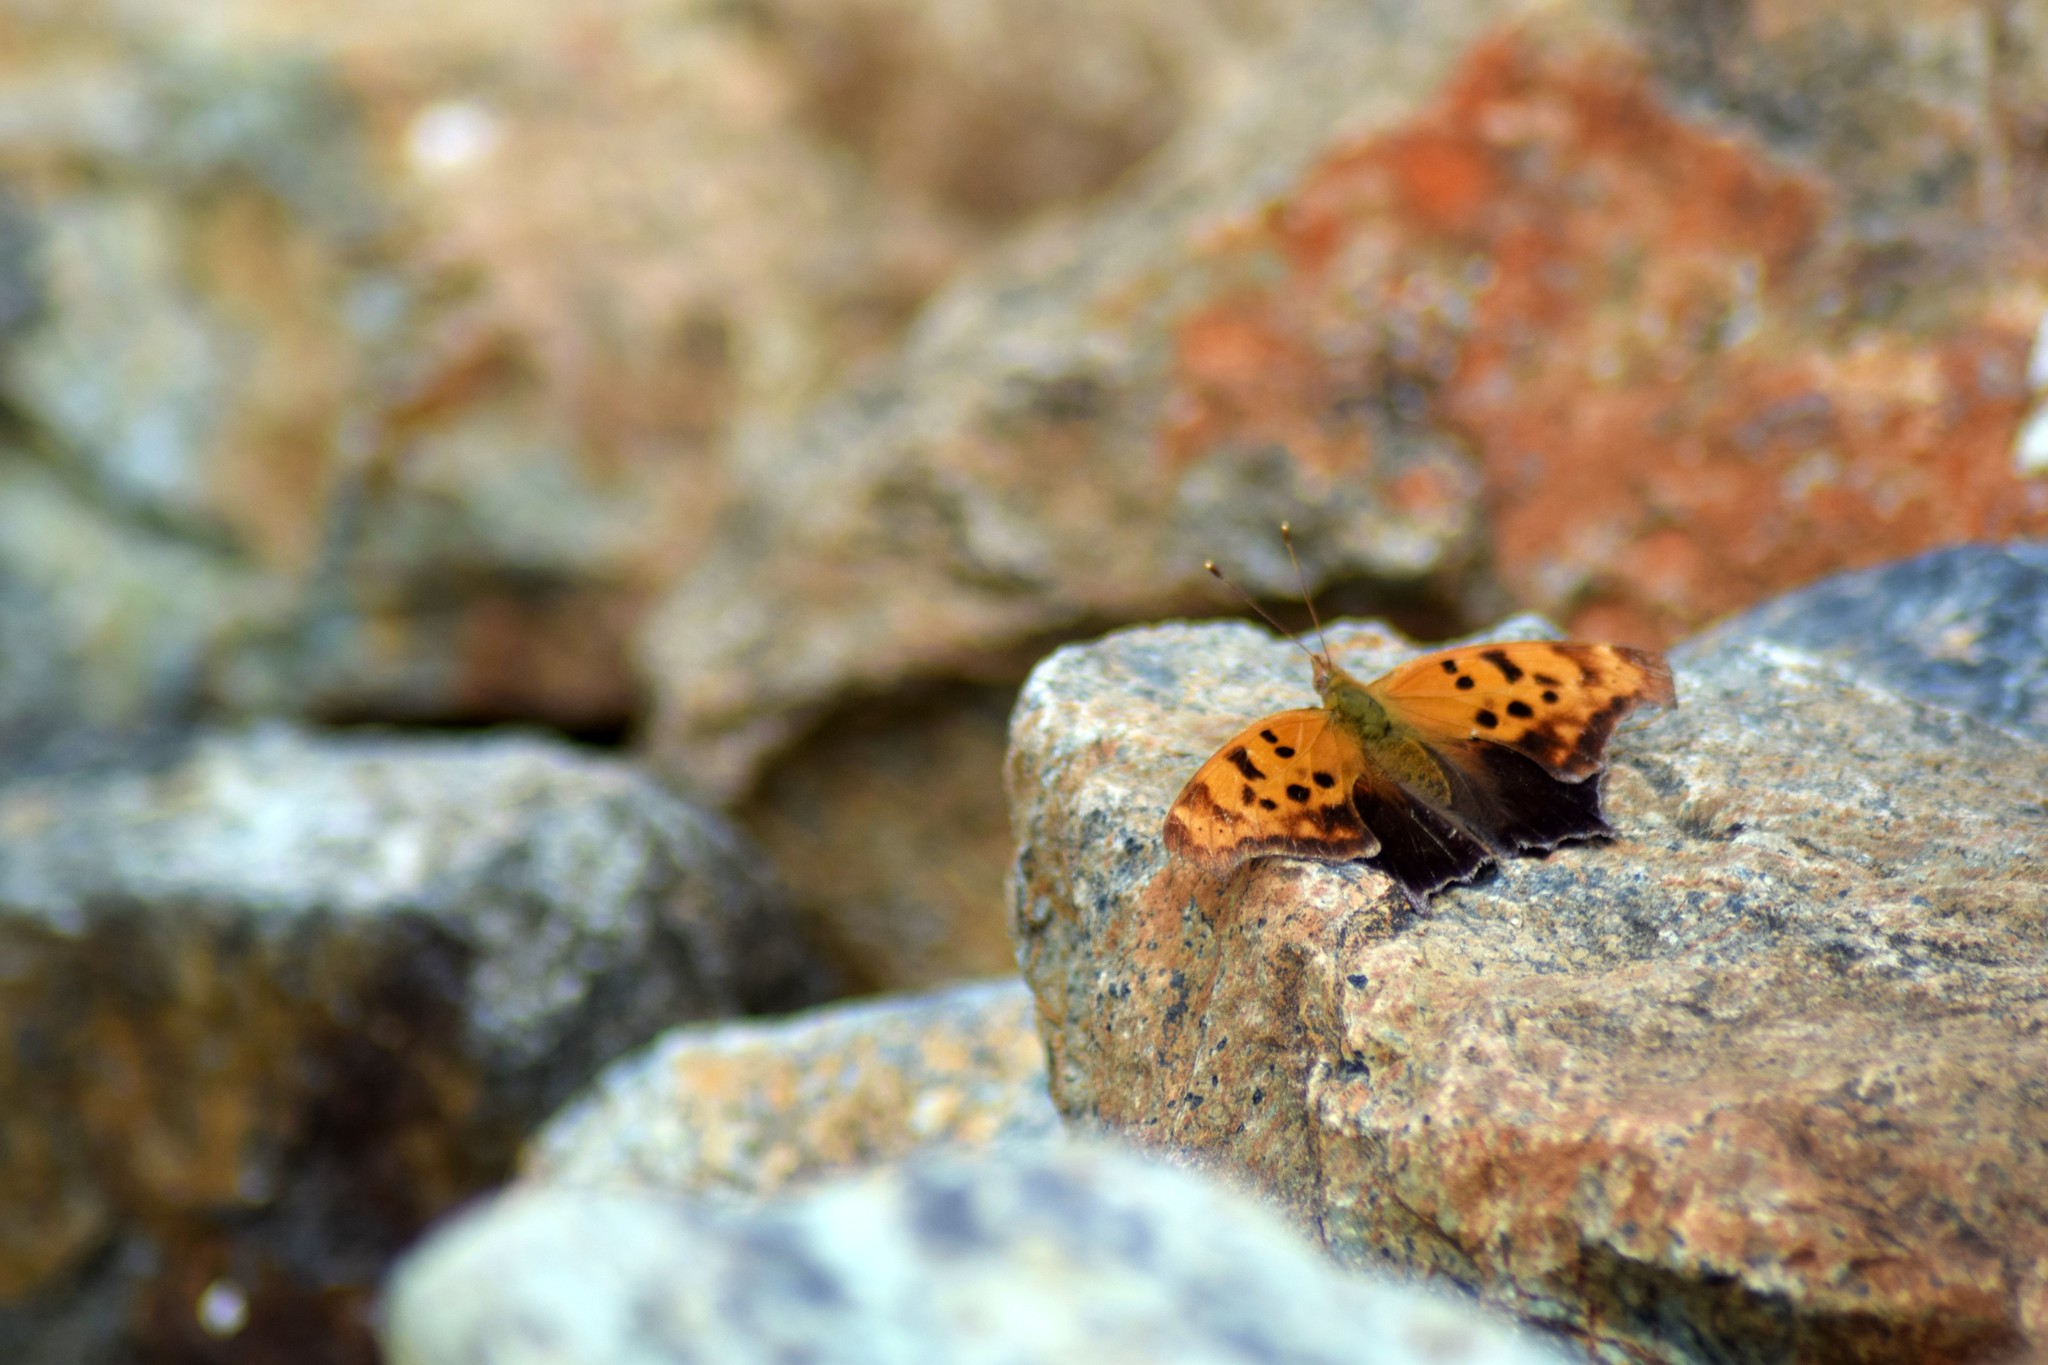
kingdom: Animalia
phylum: Arthropoda
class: Insecta
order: Lepidoptera
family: Nymphalidae
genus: Polygonia
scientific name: Polygonia interrogationis
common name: Question mark
